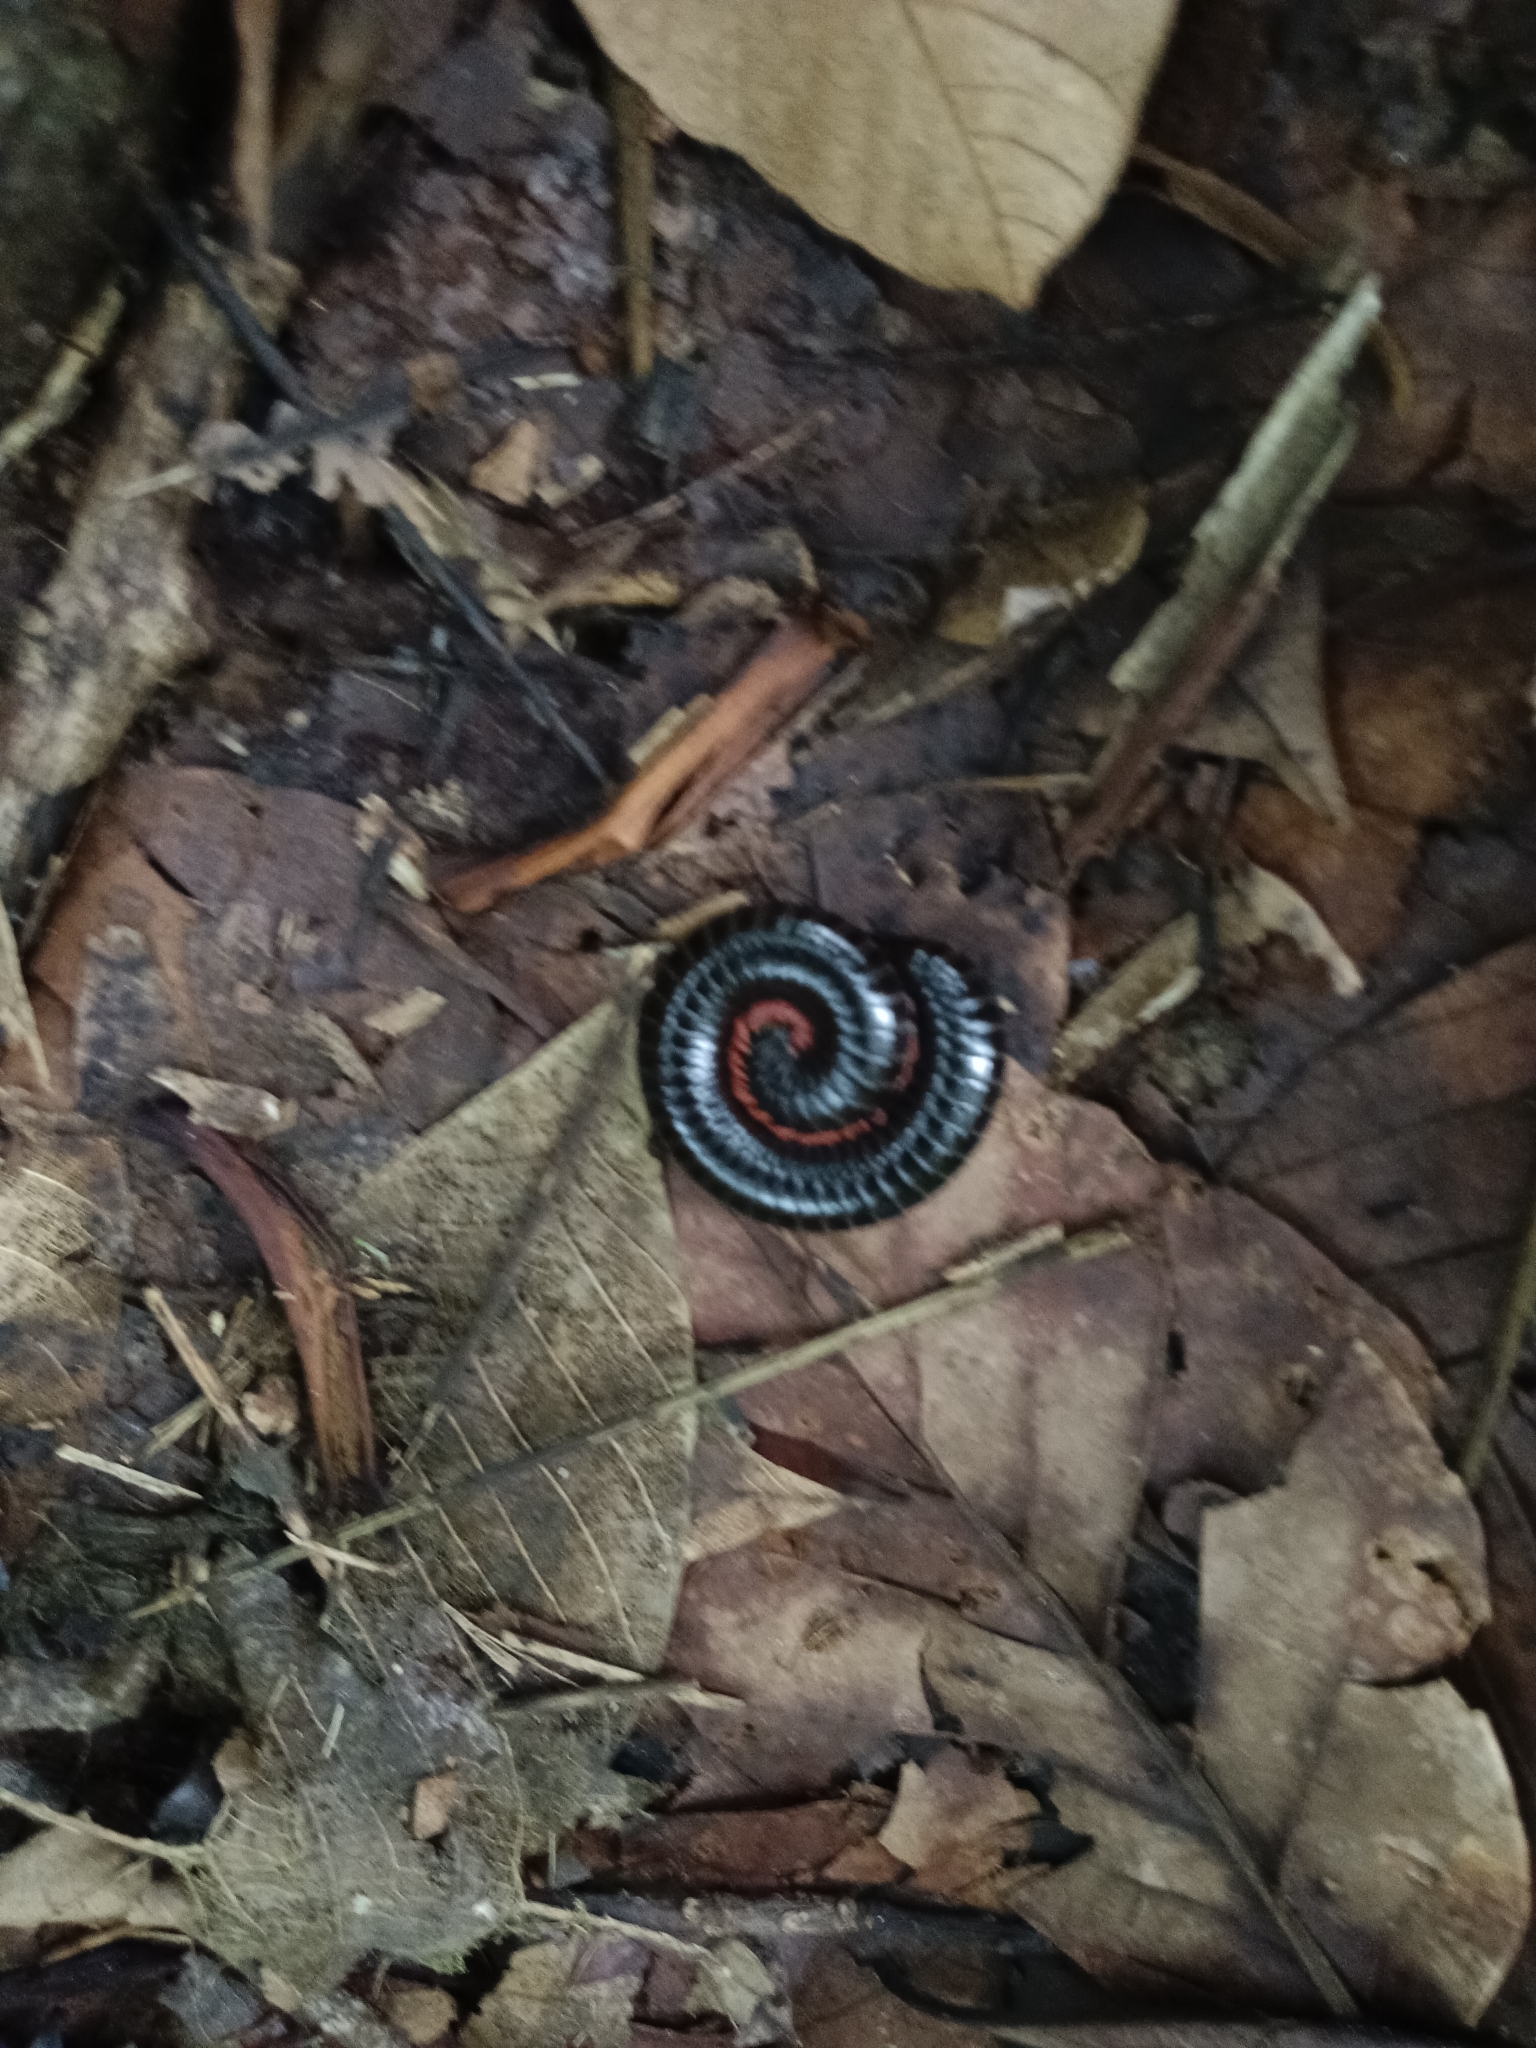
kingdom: Animalia
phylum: Arthropoda
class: Diplopoda
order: Spirostreptida
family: Harpagophoridae
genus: Phyllogonostreptus
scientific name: Phyllogonostreptus nigrolabiatus
